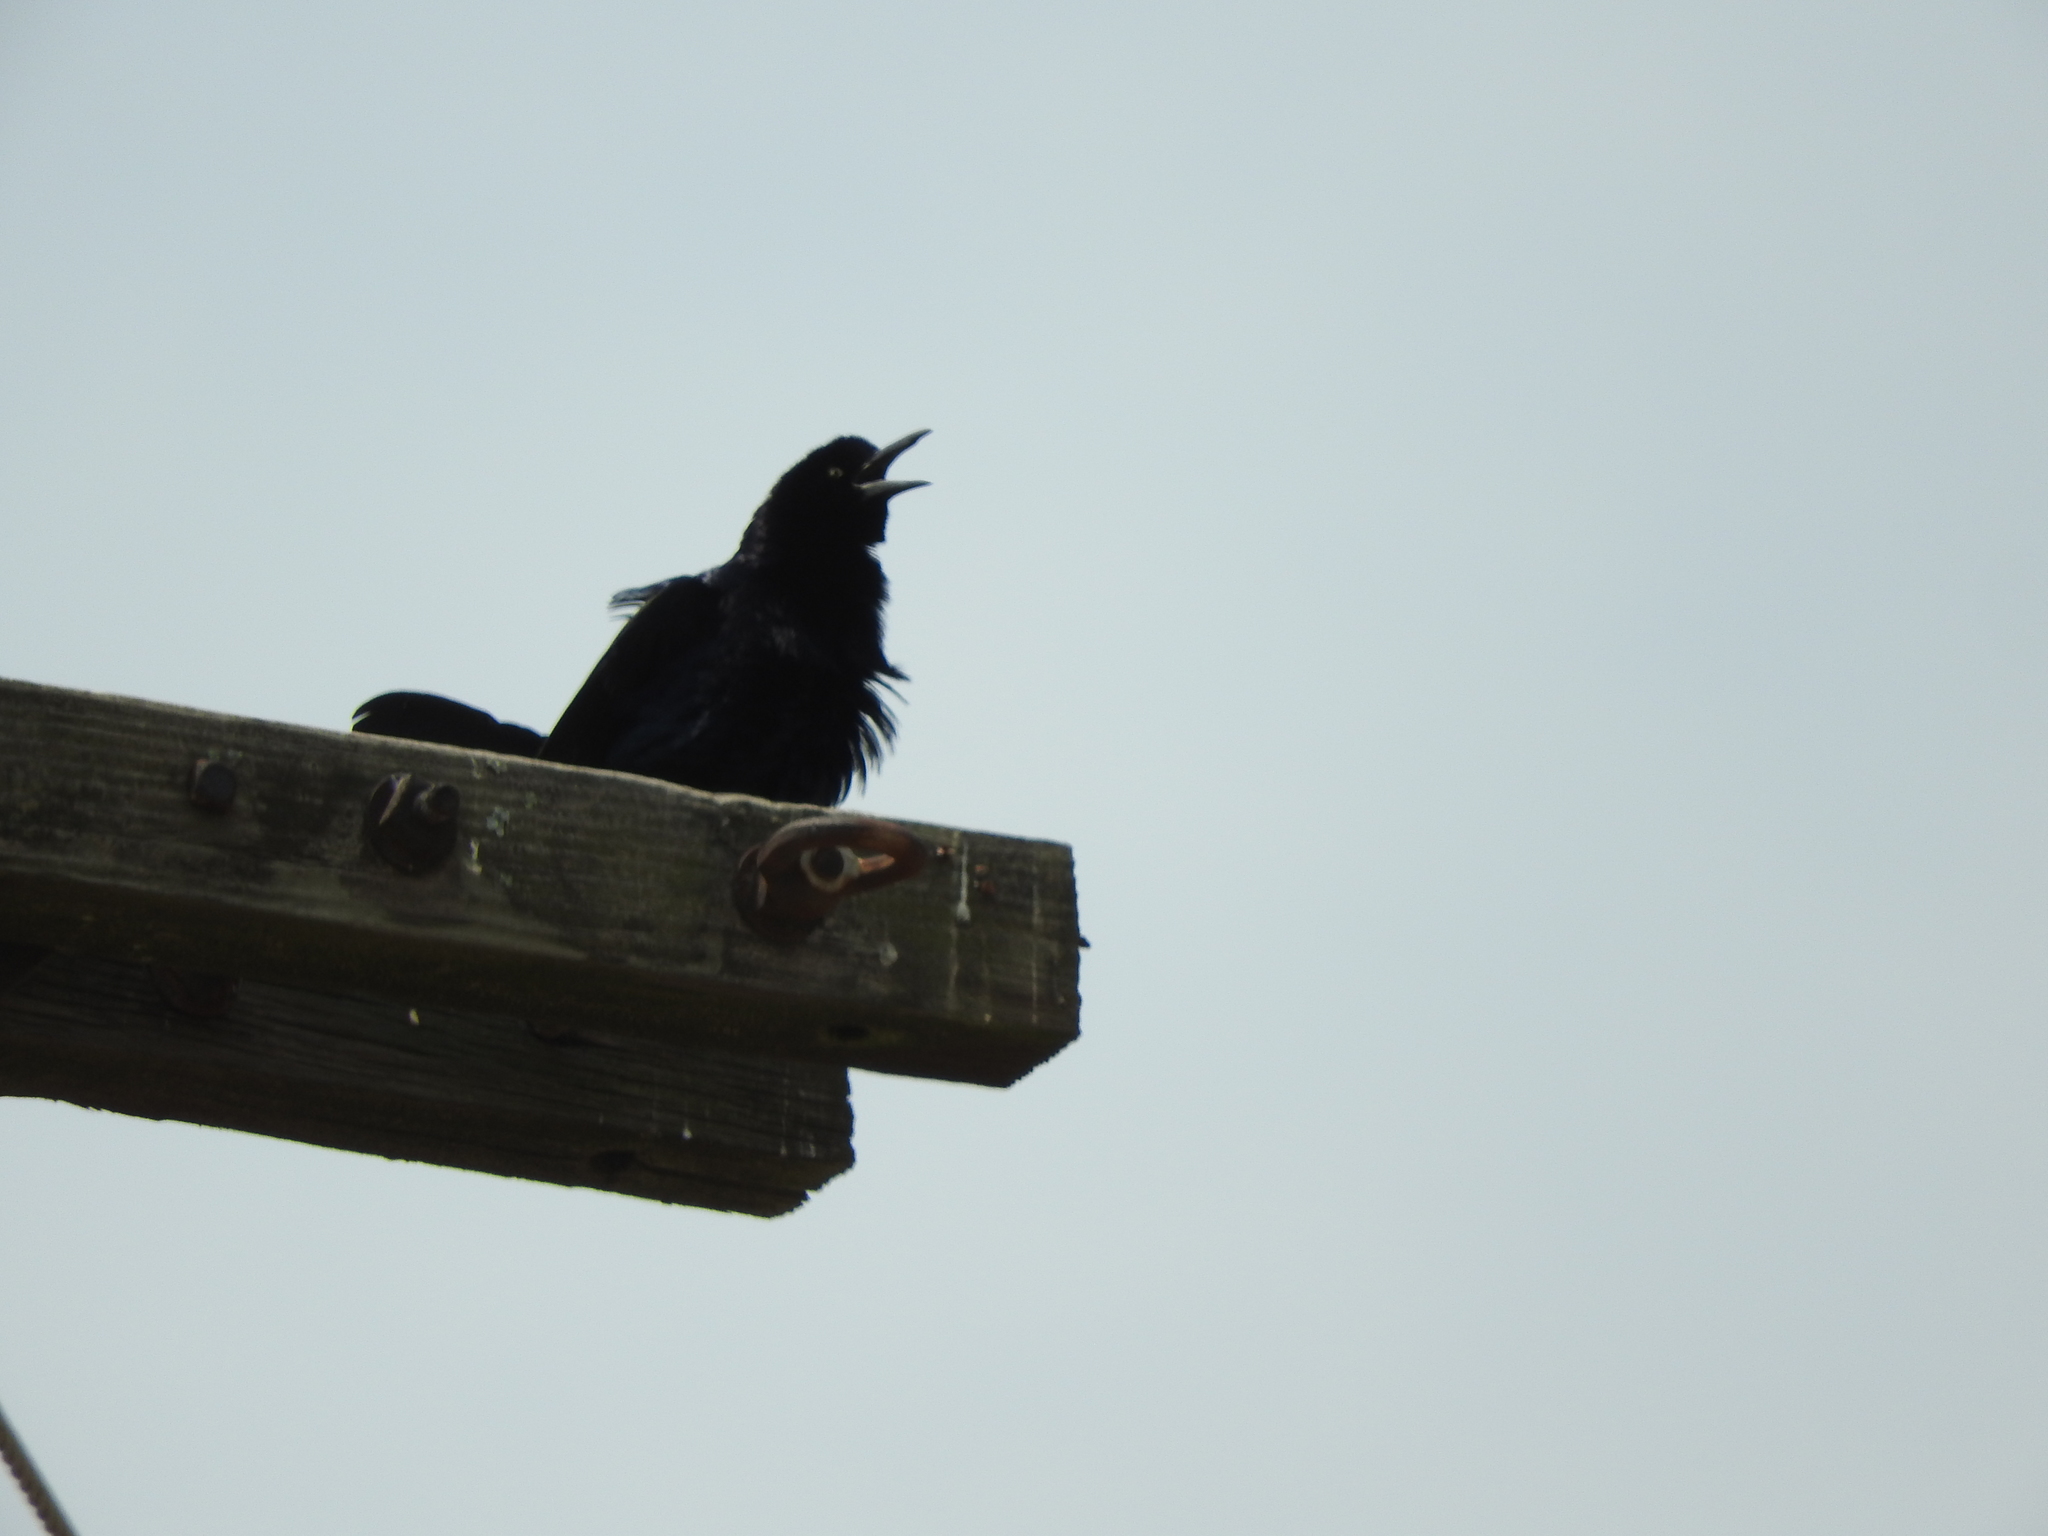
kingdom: Animalia
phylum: Chordata
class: Aves
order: Passeriformes
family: Icteridae
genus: Quiscalus
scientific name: Quiscalus mexicanus
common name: Great-tailed grackle
